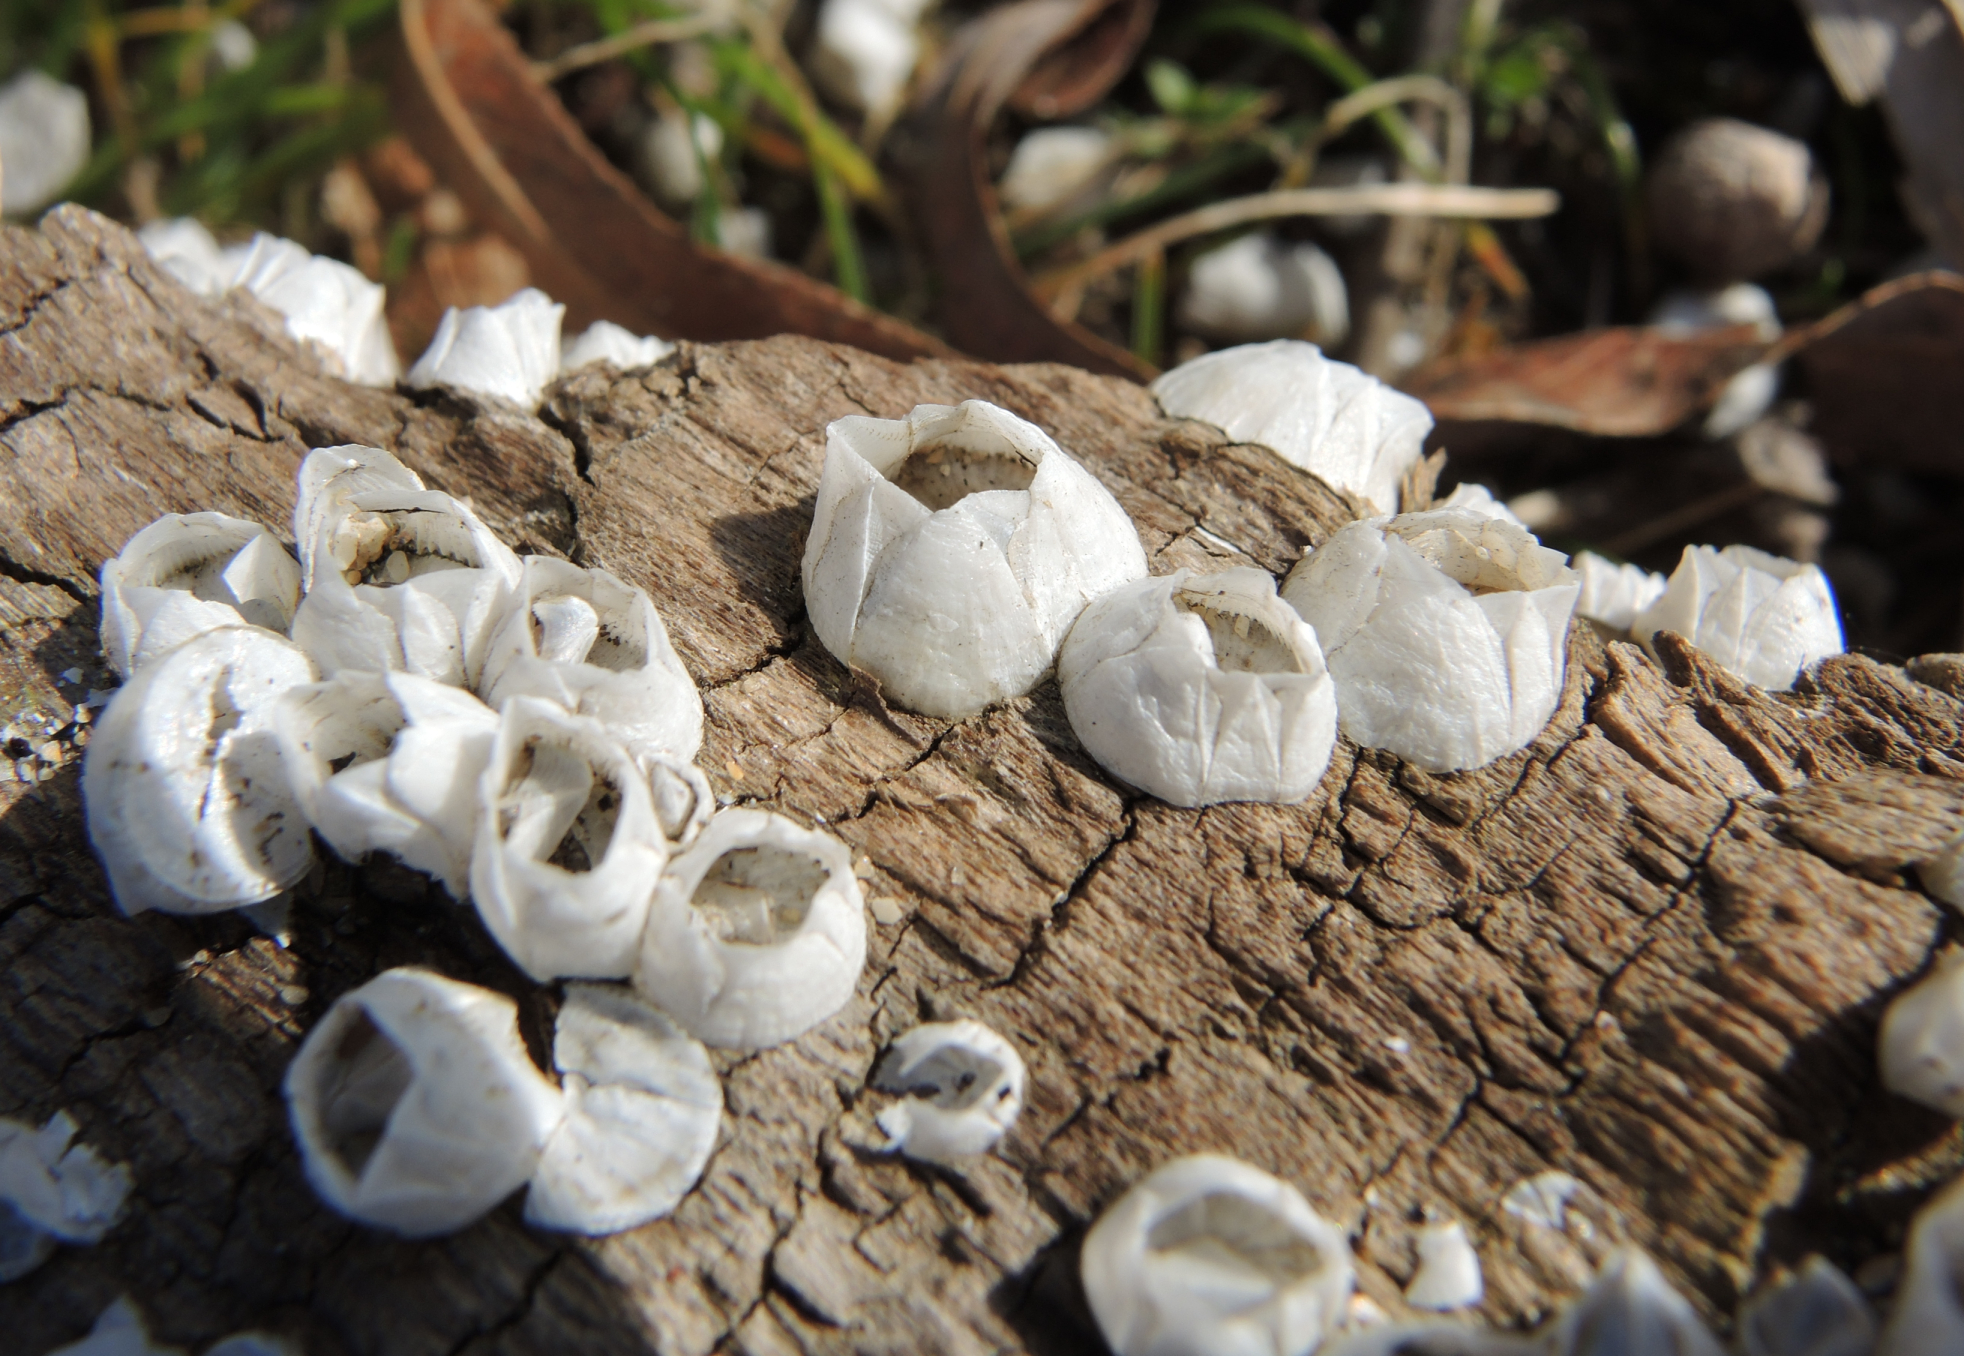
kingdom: Animalia
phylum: Arthropoda
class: Maxillopoda
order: Sessilia
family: Balanidae
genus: Amphibalanus
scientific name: Amphibalanus improvisus
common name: Bay barnacle
